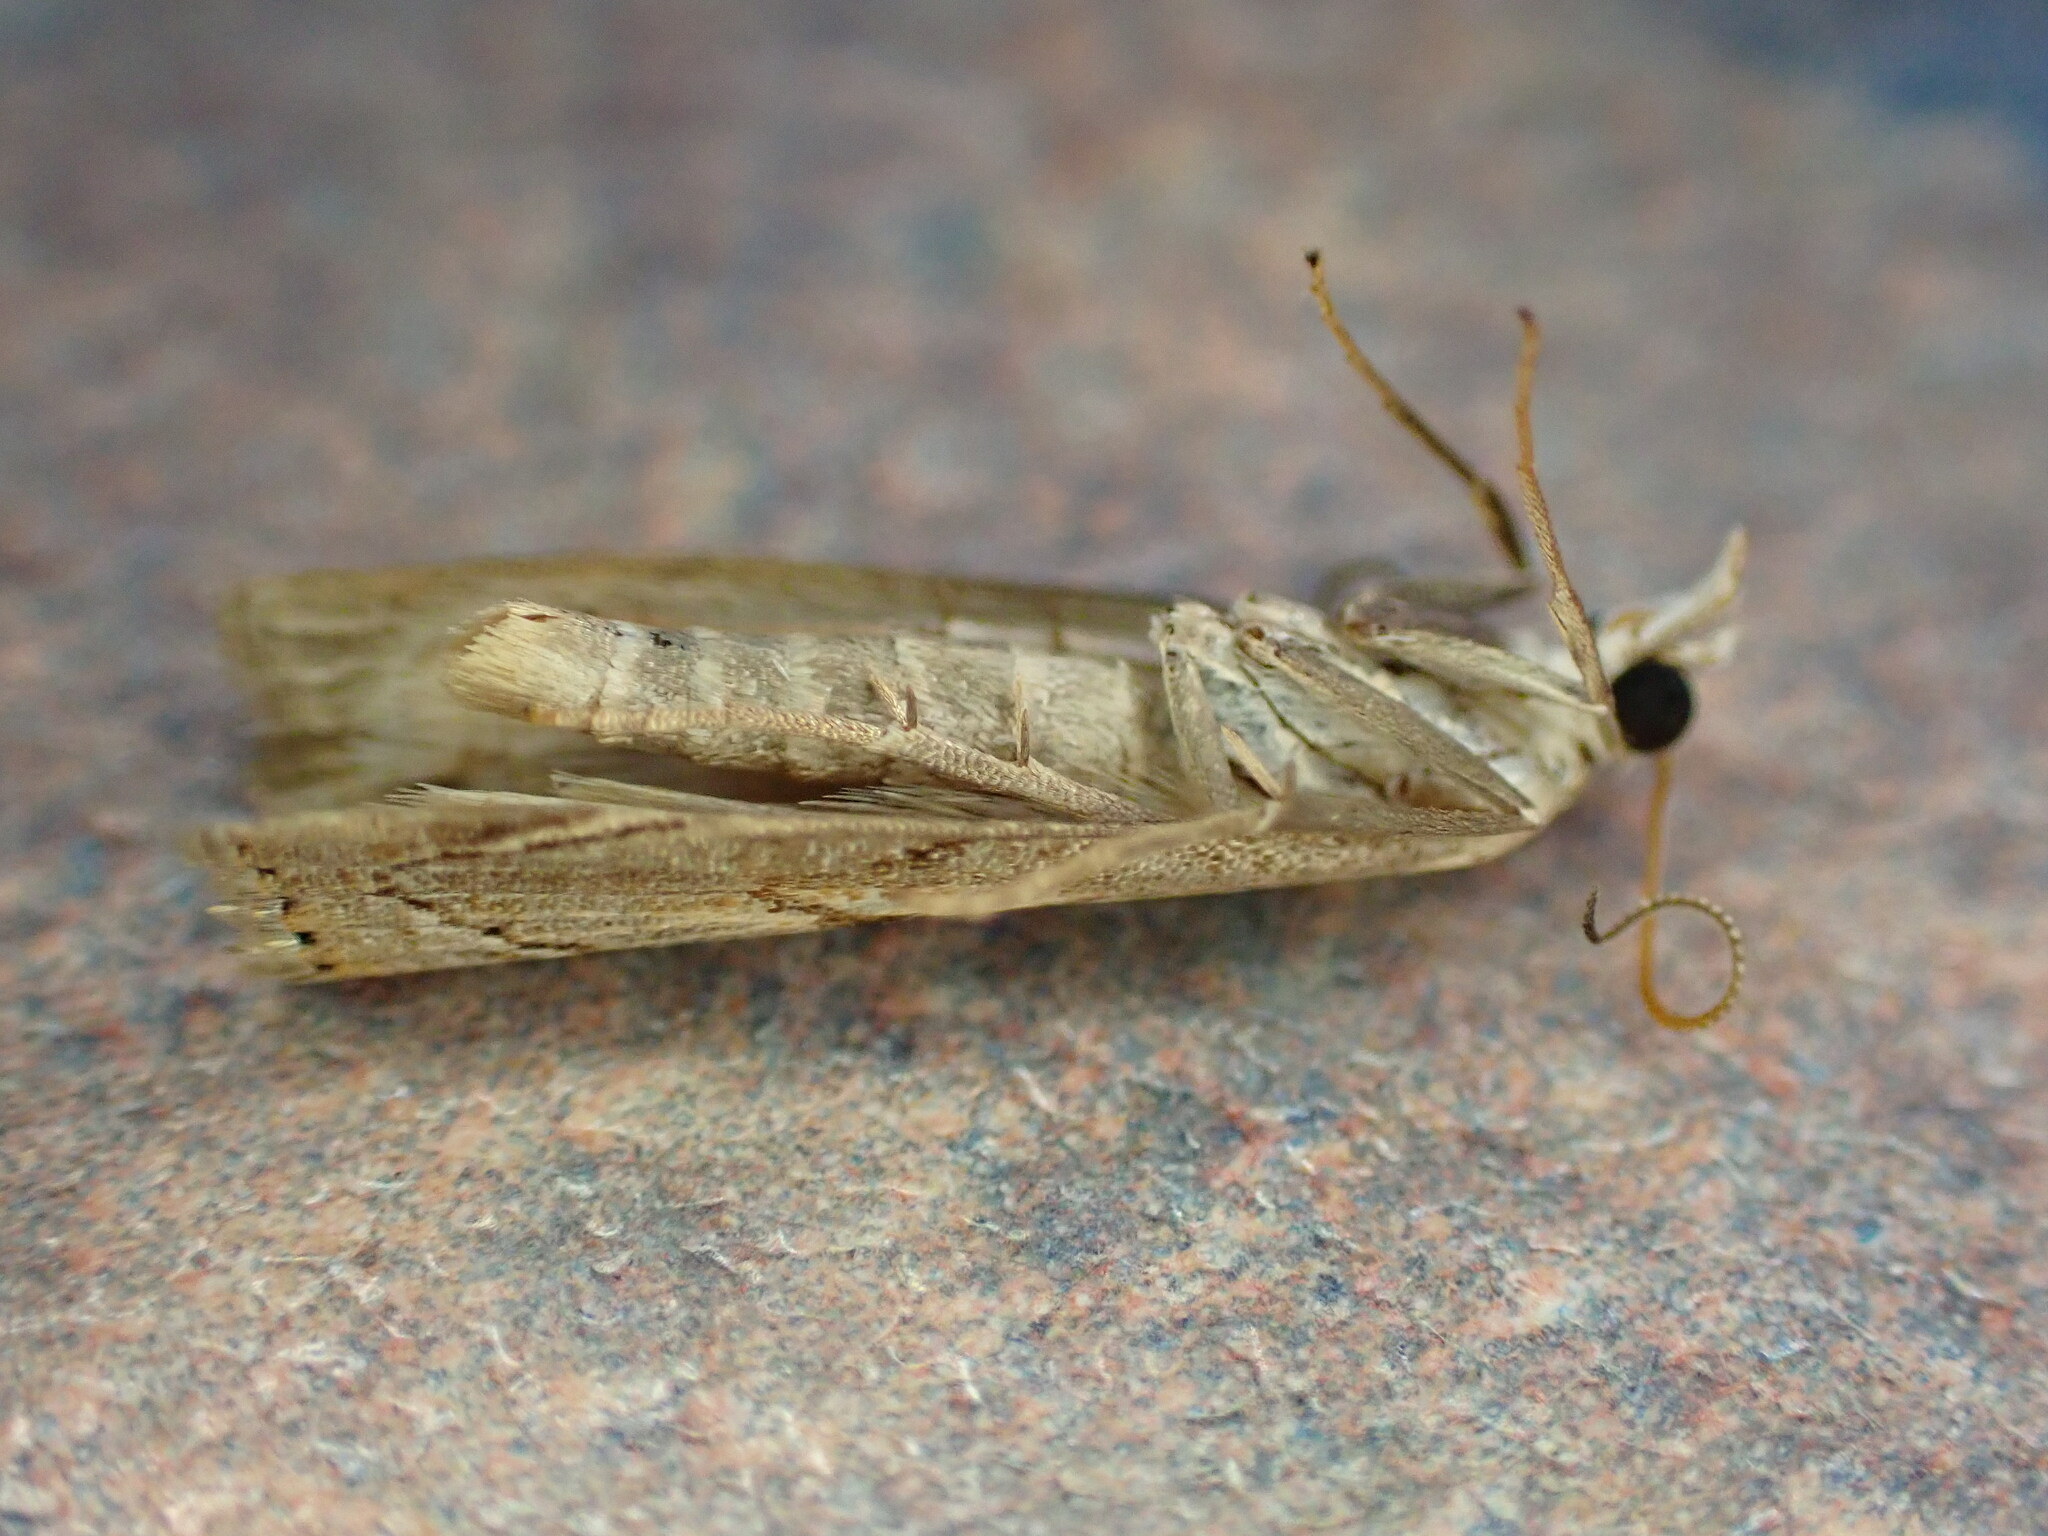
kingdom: Animalia
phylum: Arthropoda
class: Insecta
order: Lepidoptera
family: Crambidae
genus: Agriphila
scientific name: Agriphila geniculea
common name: Elbow-stripe grass-veneer
